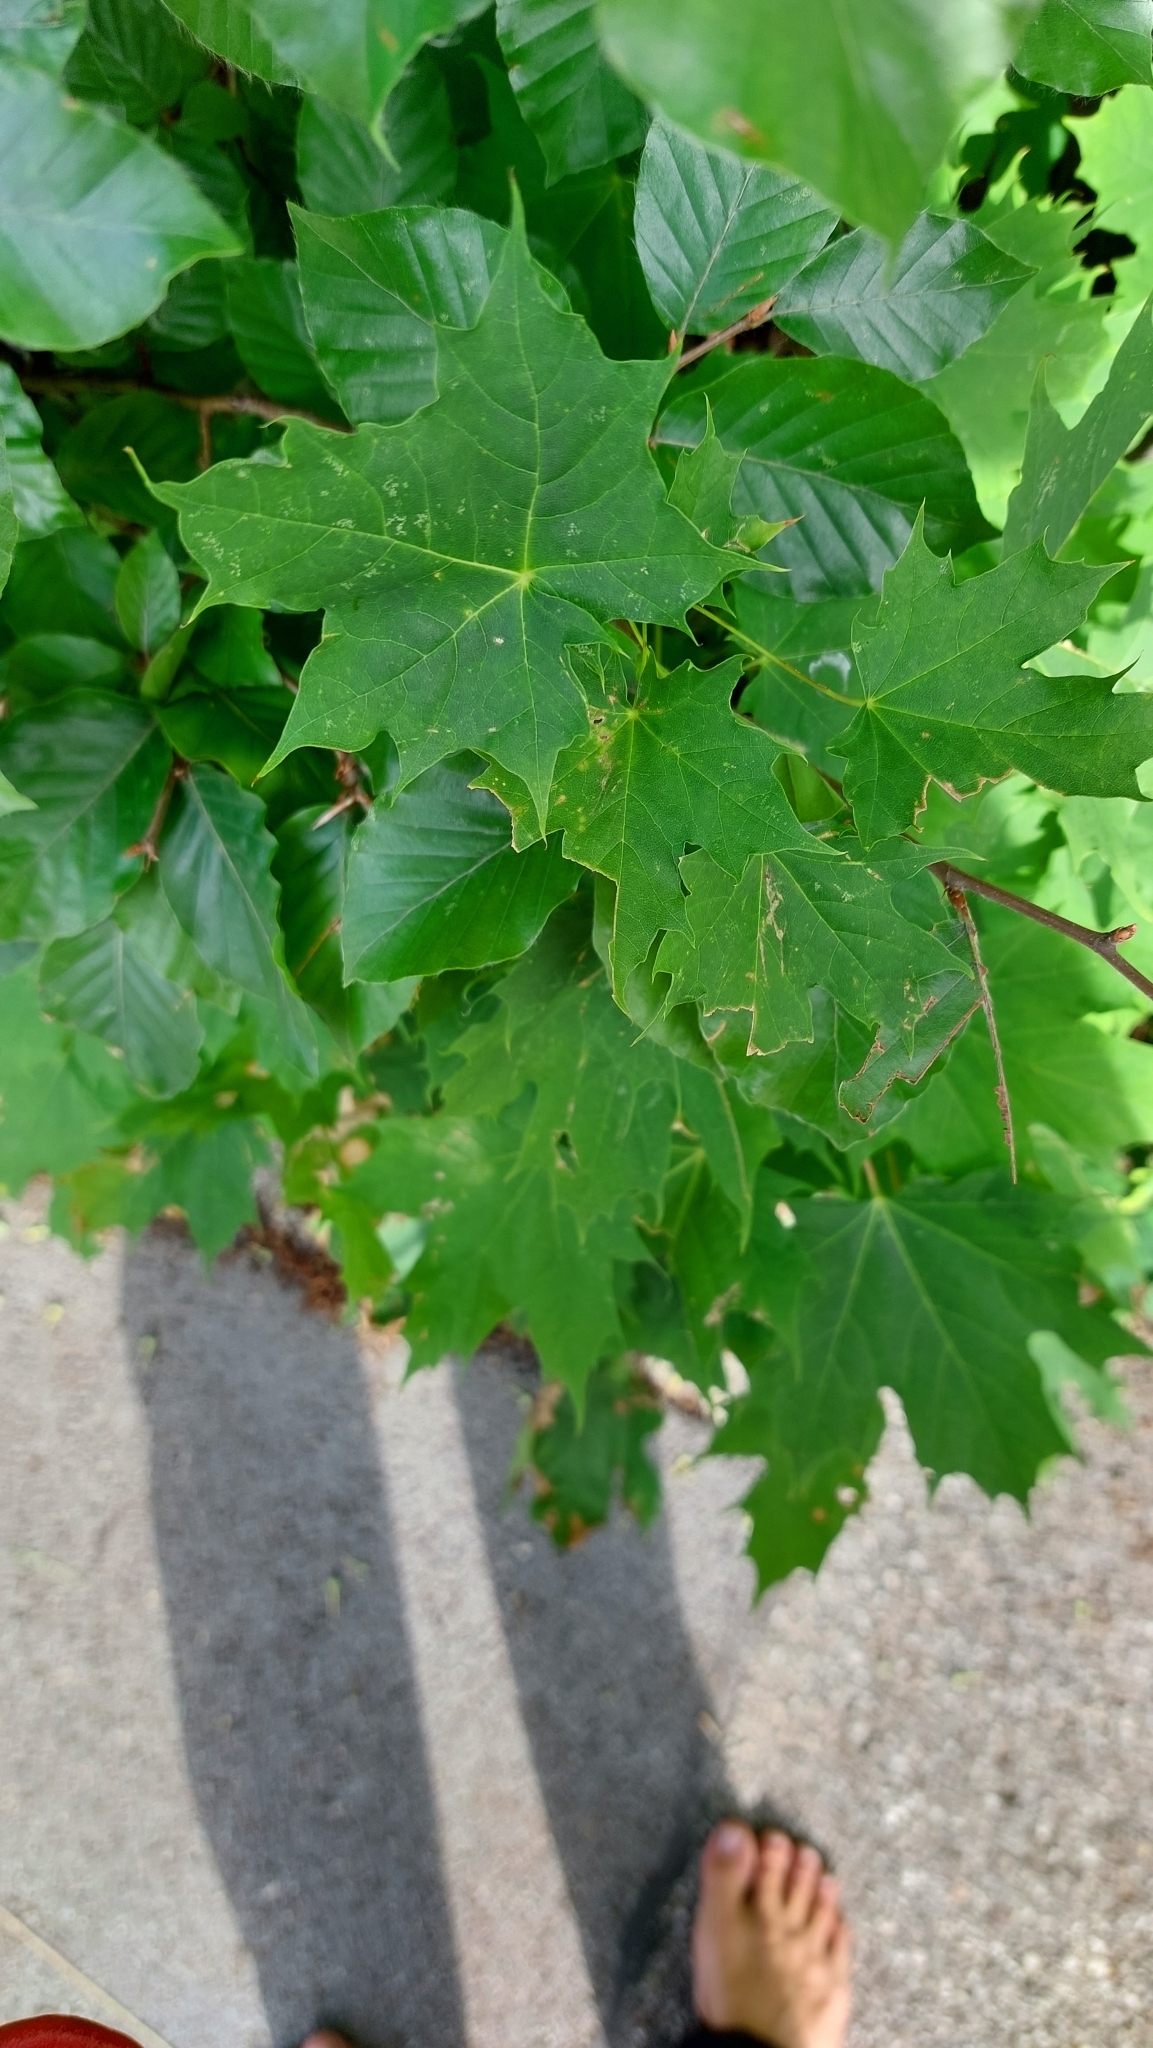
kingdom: Plantae
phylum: Tracheophyta
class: Magnoliopsida
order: Sapindales
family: Sapindaceae
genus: Acer
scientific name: Acer platanoides
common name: Norway maple
